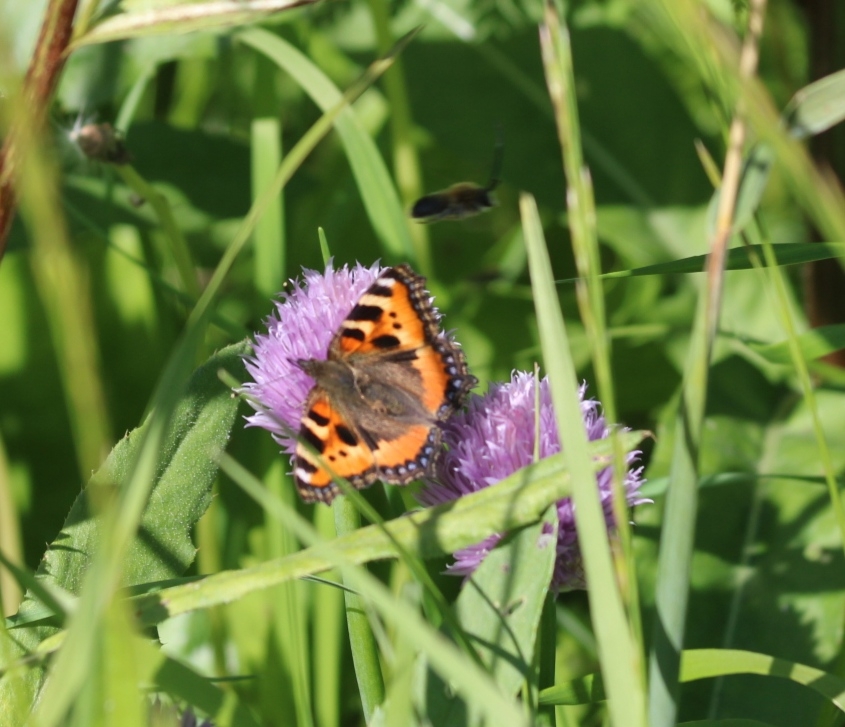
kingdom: Animalia
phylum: Arthropoda
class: Insecta
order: Lepidoptera
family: Nymphalidae
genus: Aglais
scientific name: Aglais urticae
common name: Small tortoiseshell
